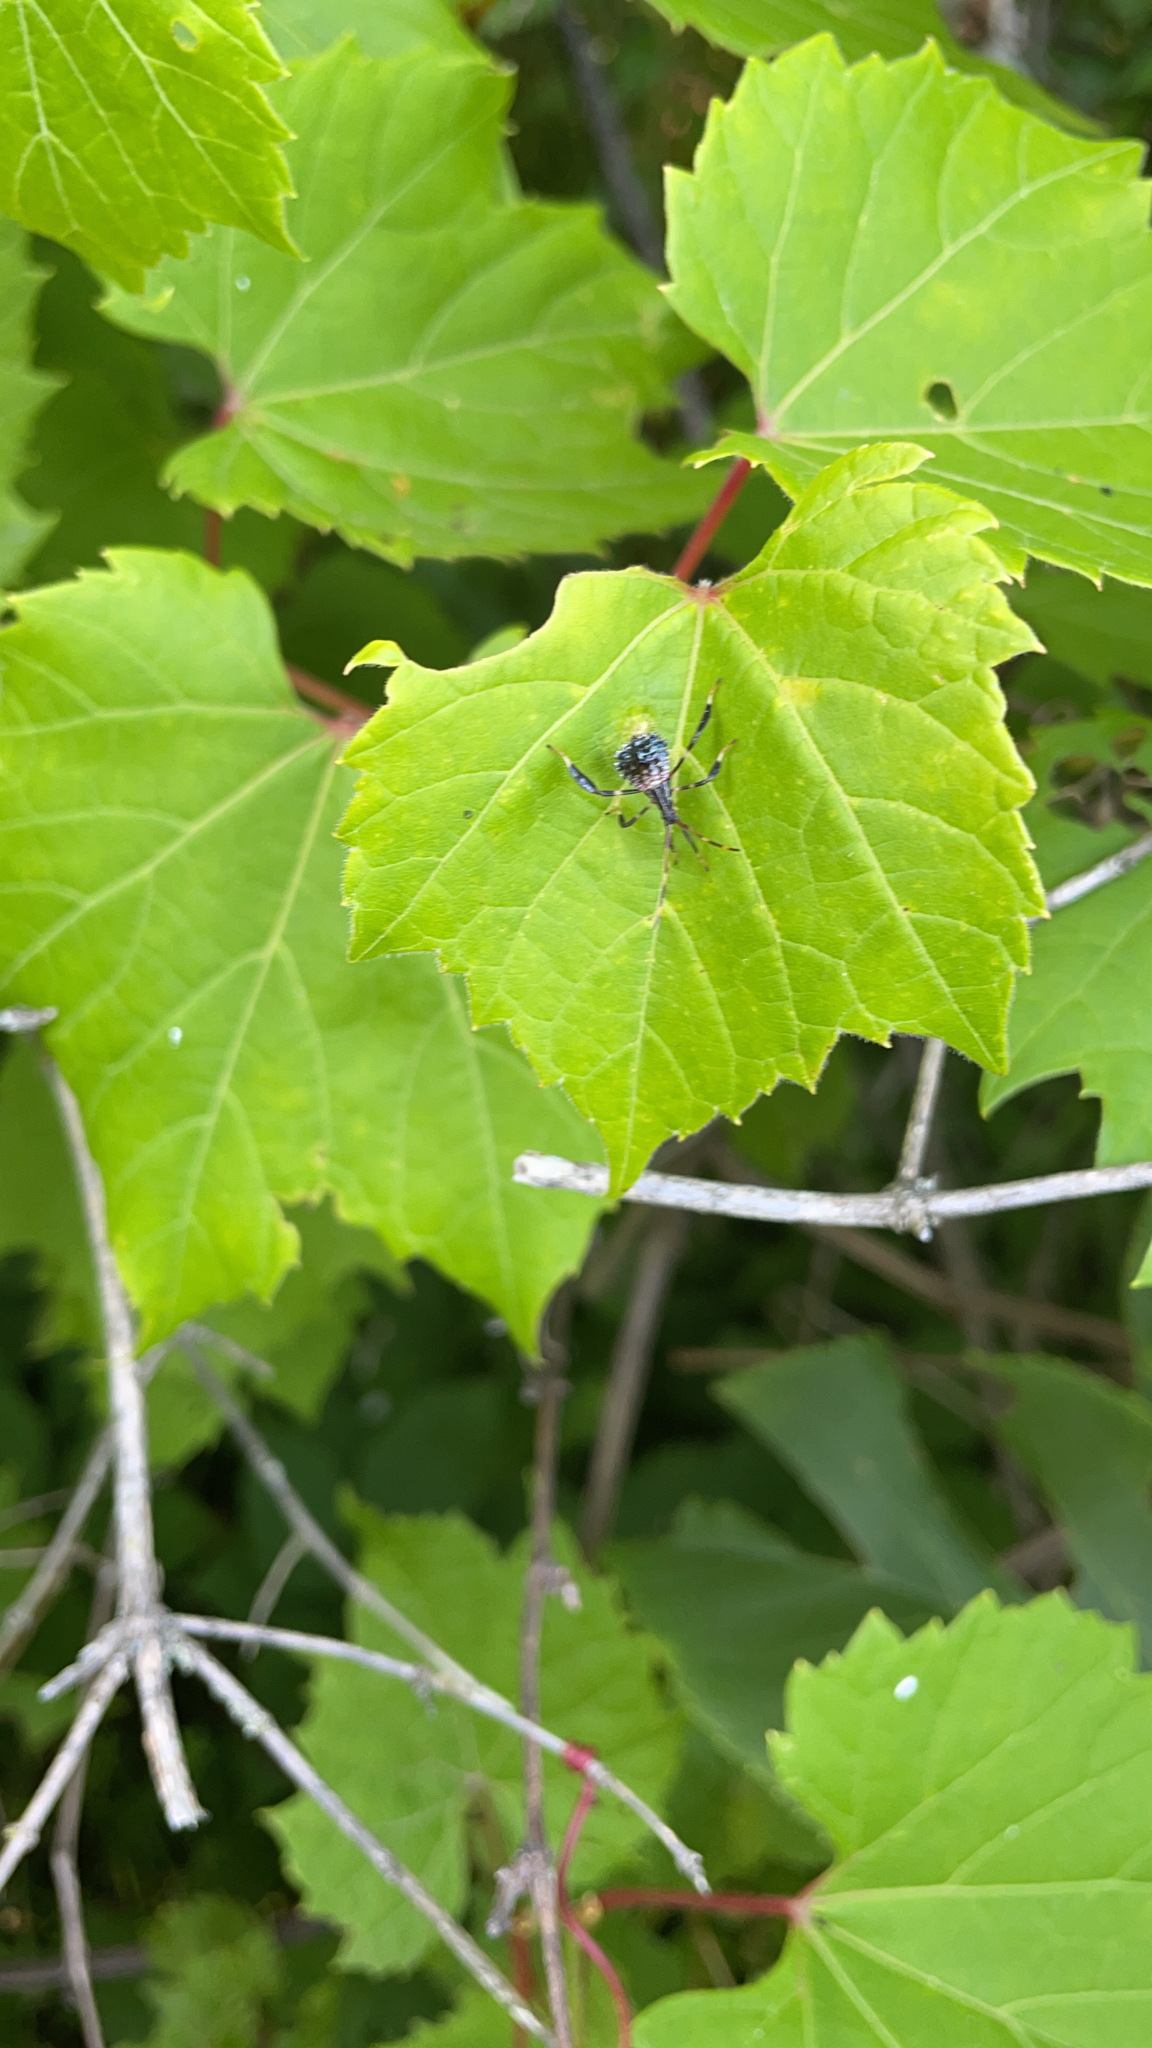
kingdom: Animalia
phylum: Arthropoda
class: Insecta
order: Hemiptera
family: Coreidae
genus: Acanthocephala
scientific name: Acanthocephala terminalis
